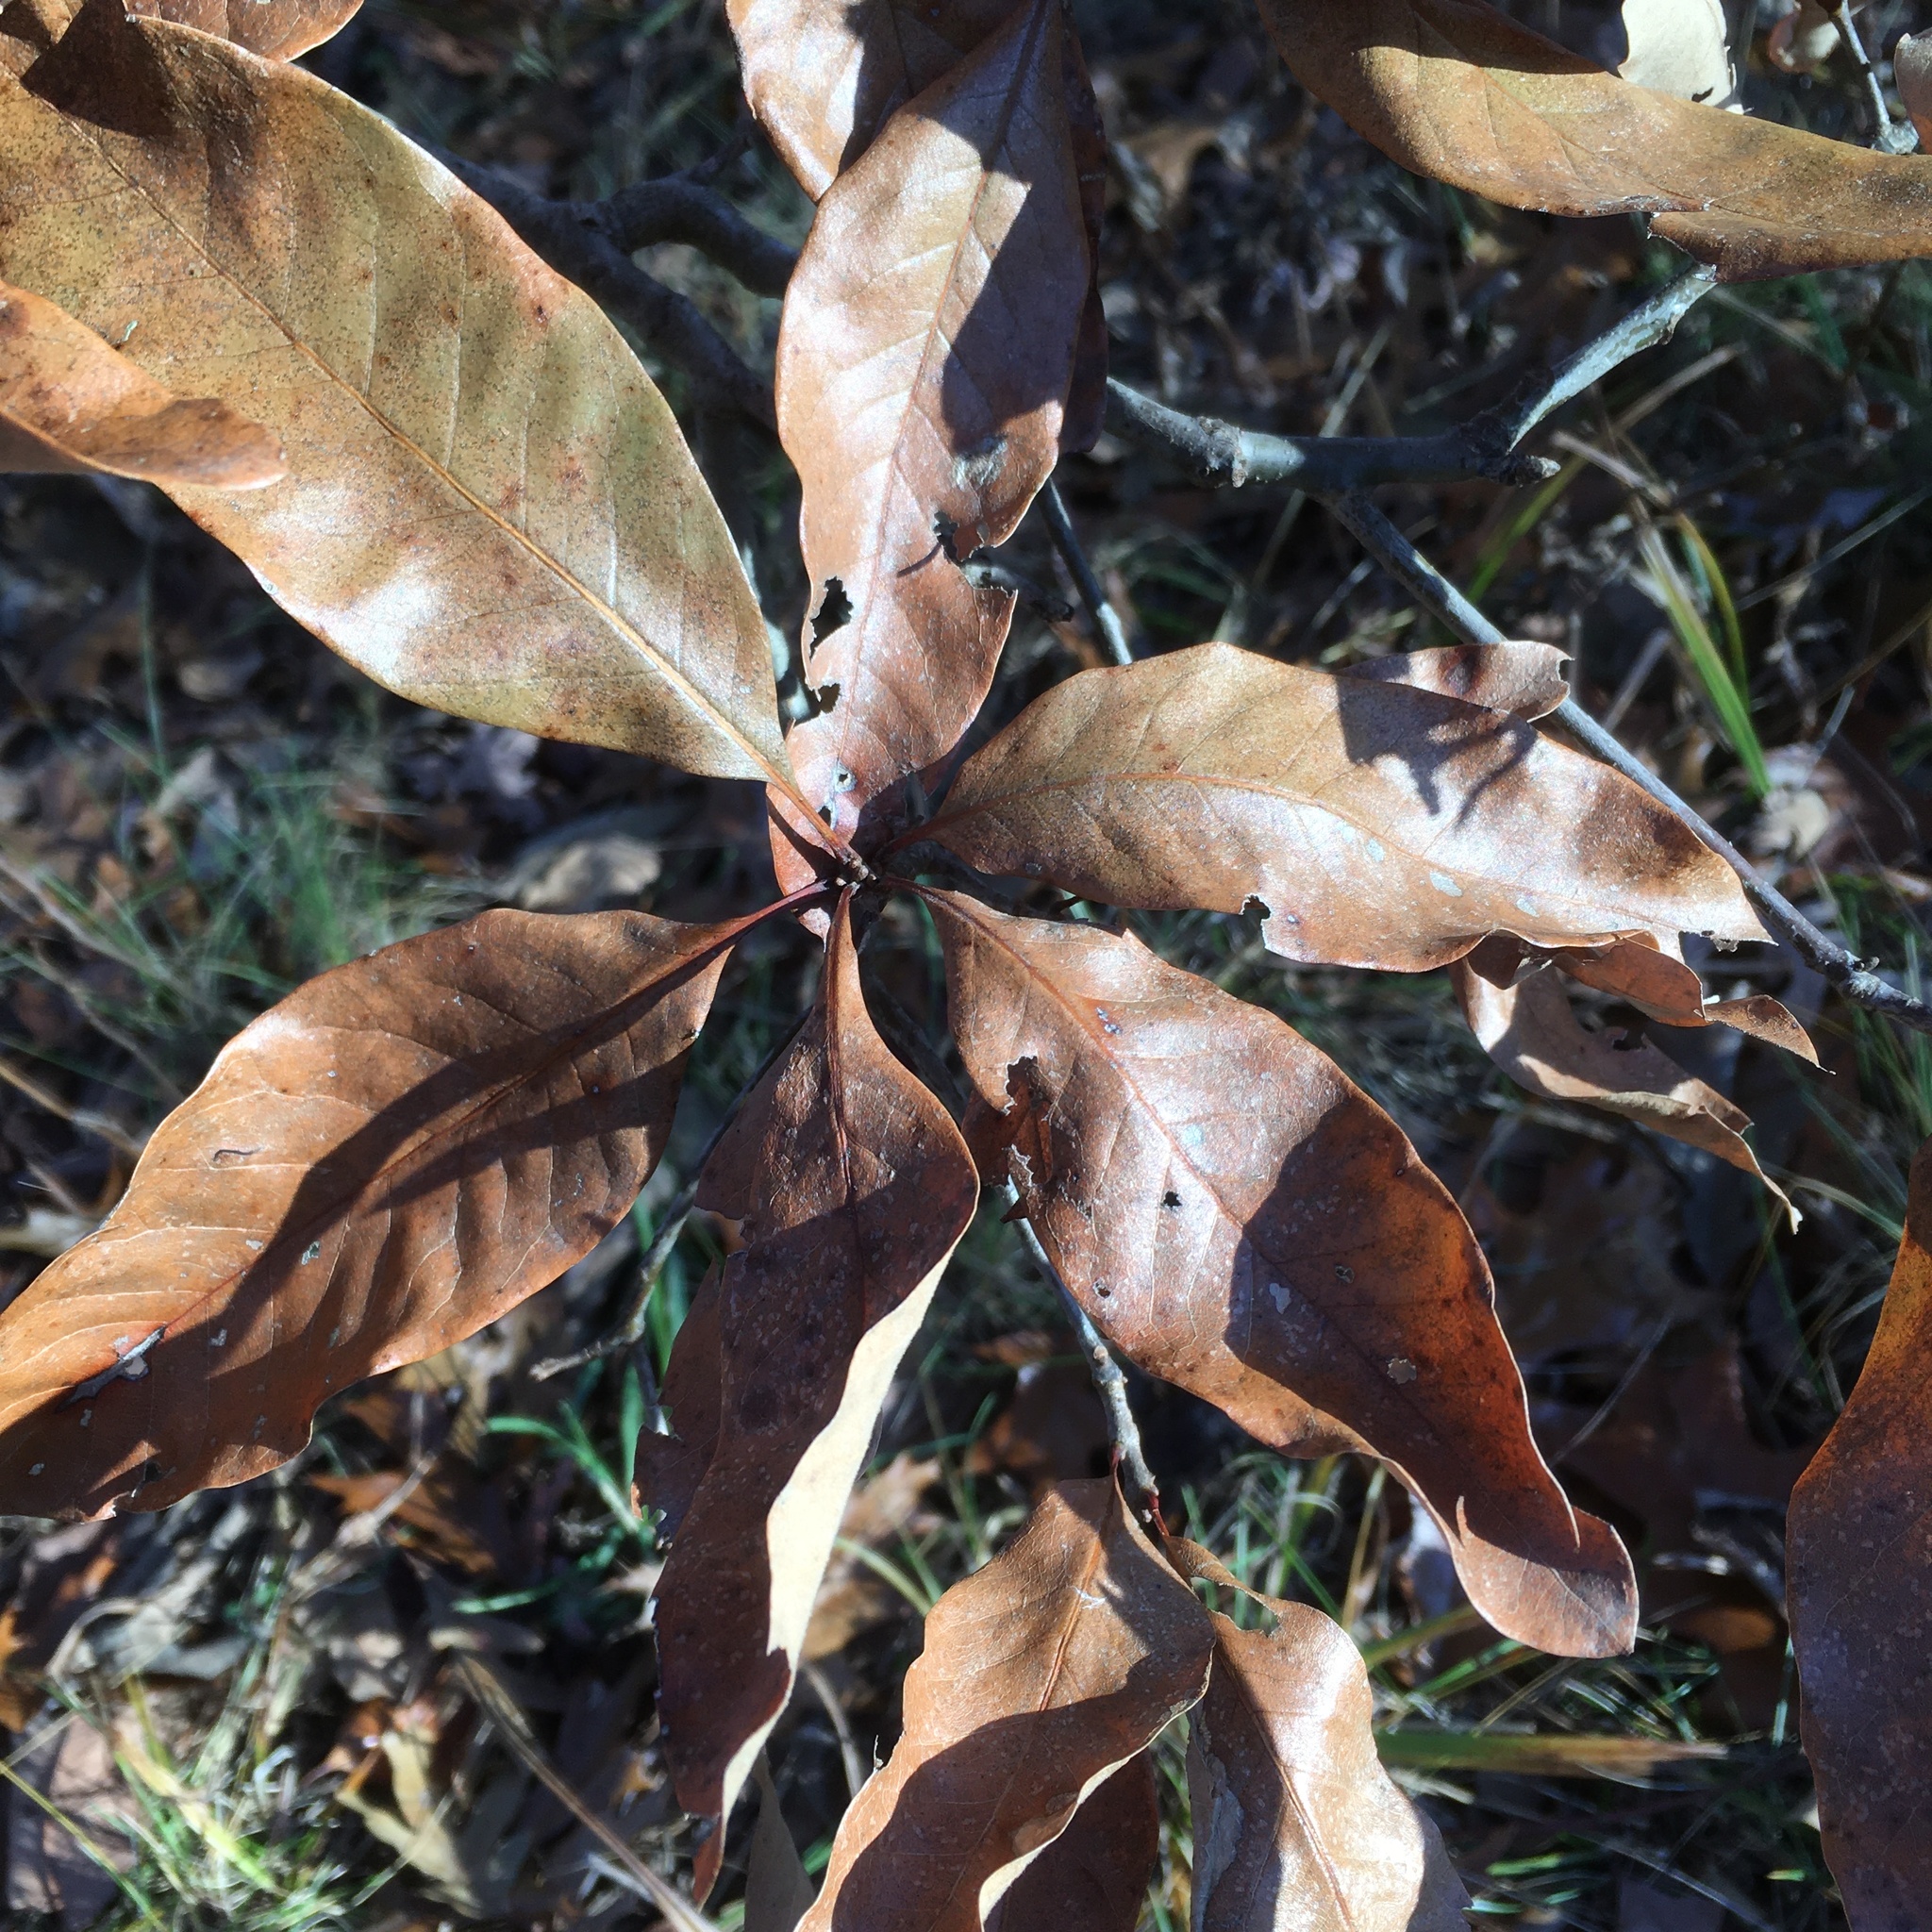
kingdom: Plantae
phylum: Tracheophyta
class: Magnoliopsida
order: Fagales
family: Fagaceae
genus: Quercus
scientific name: Quercus imbricaria
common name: Shingle oak
